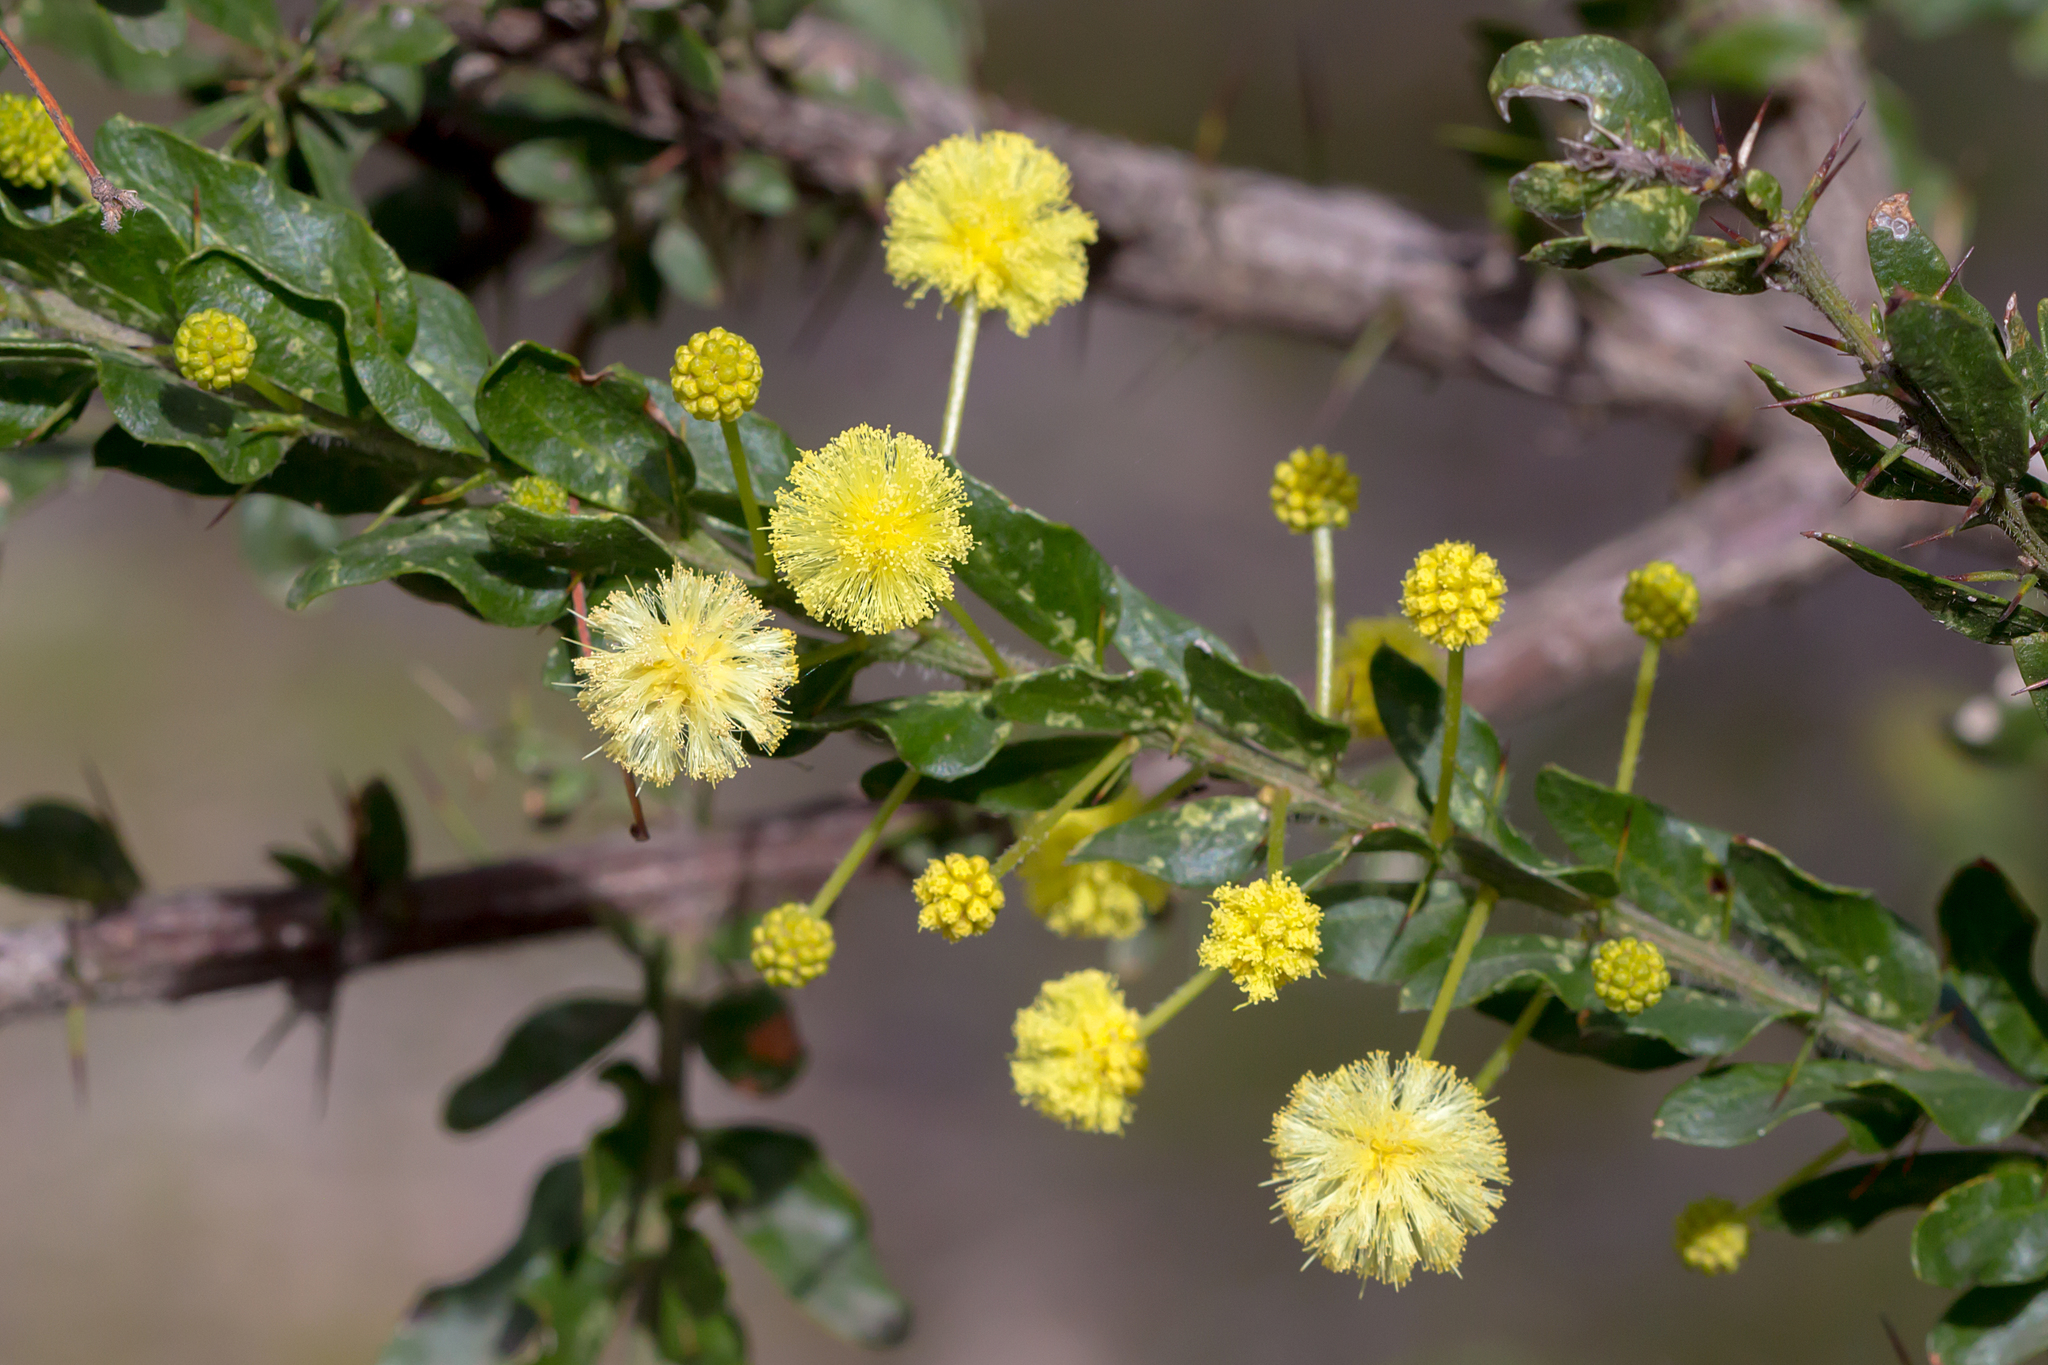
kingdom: Plantae
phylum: Tracheophyta
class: Magnoliopsida
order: Fabales
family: Fabaceae
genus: Acacia
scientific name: Acacia paradoxa
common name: Paradox acacia
